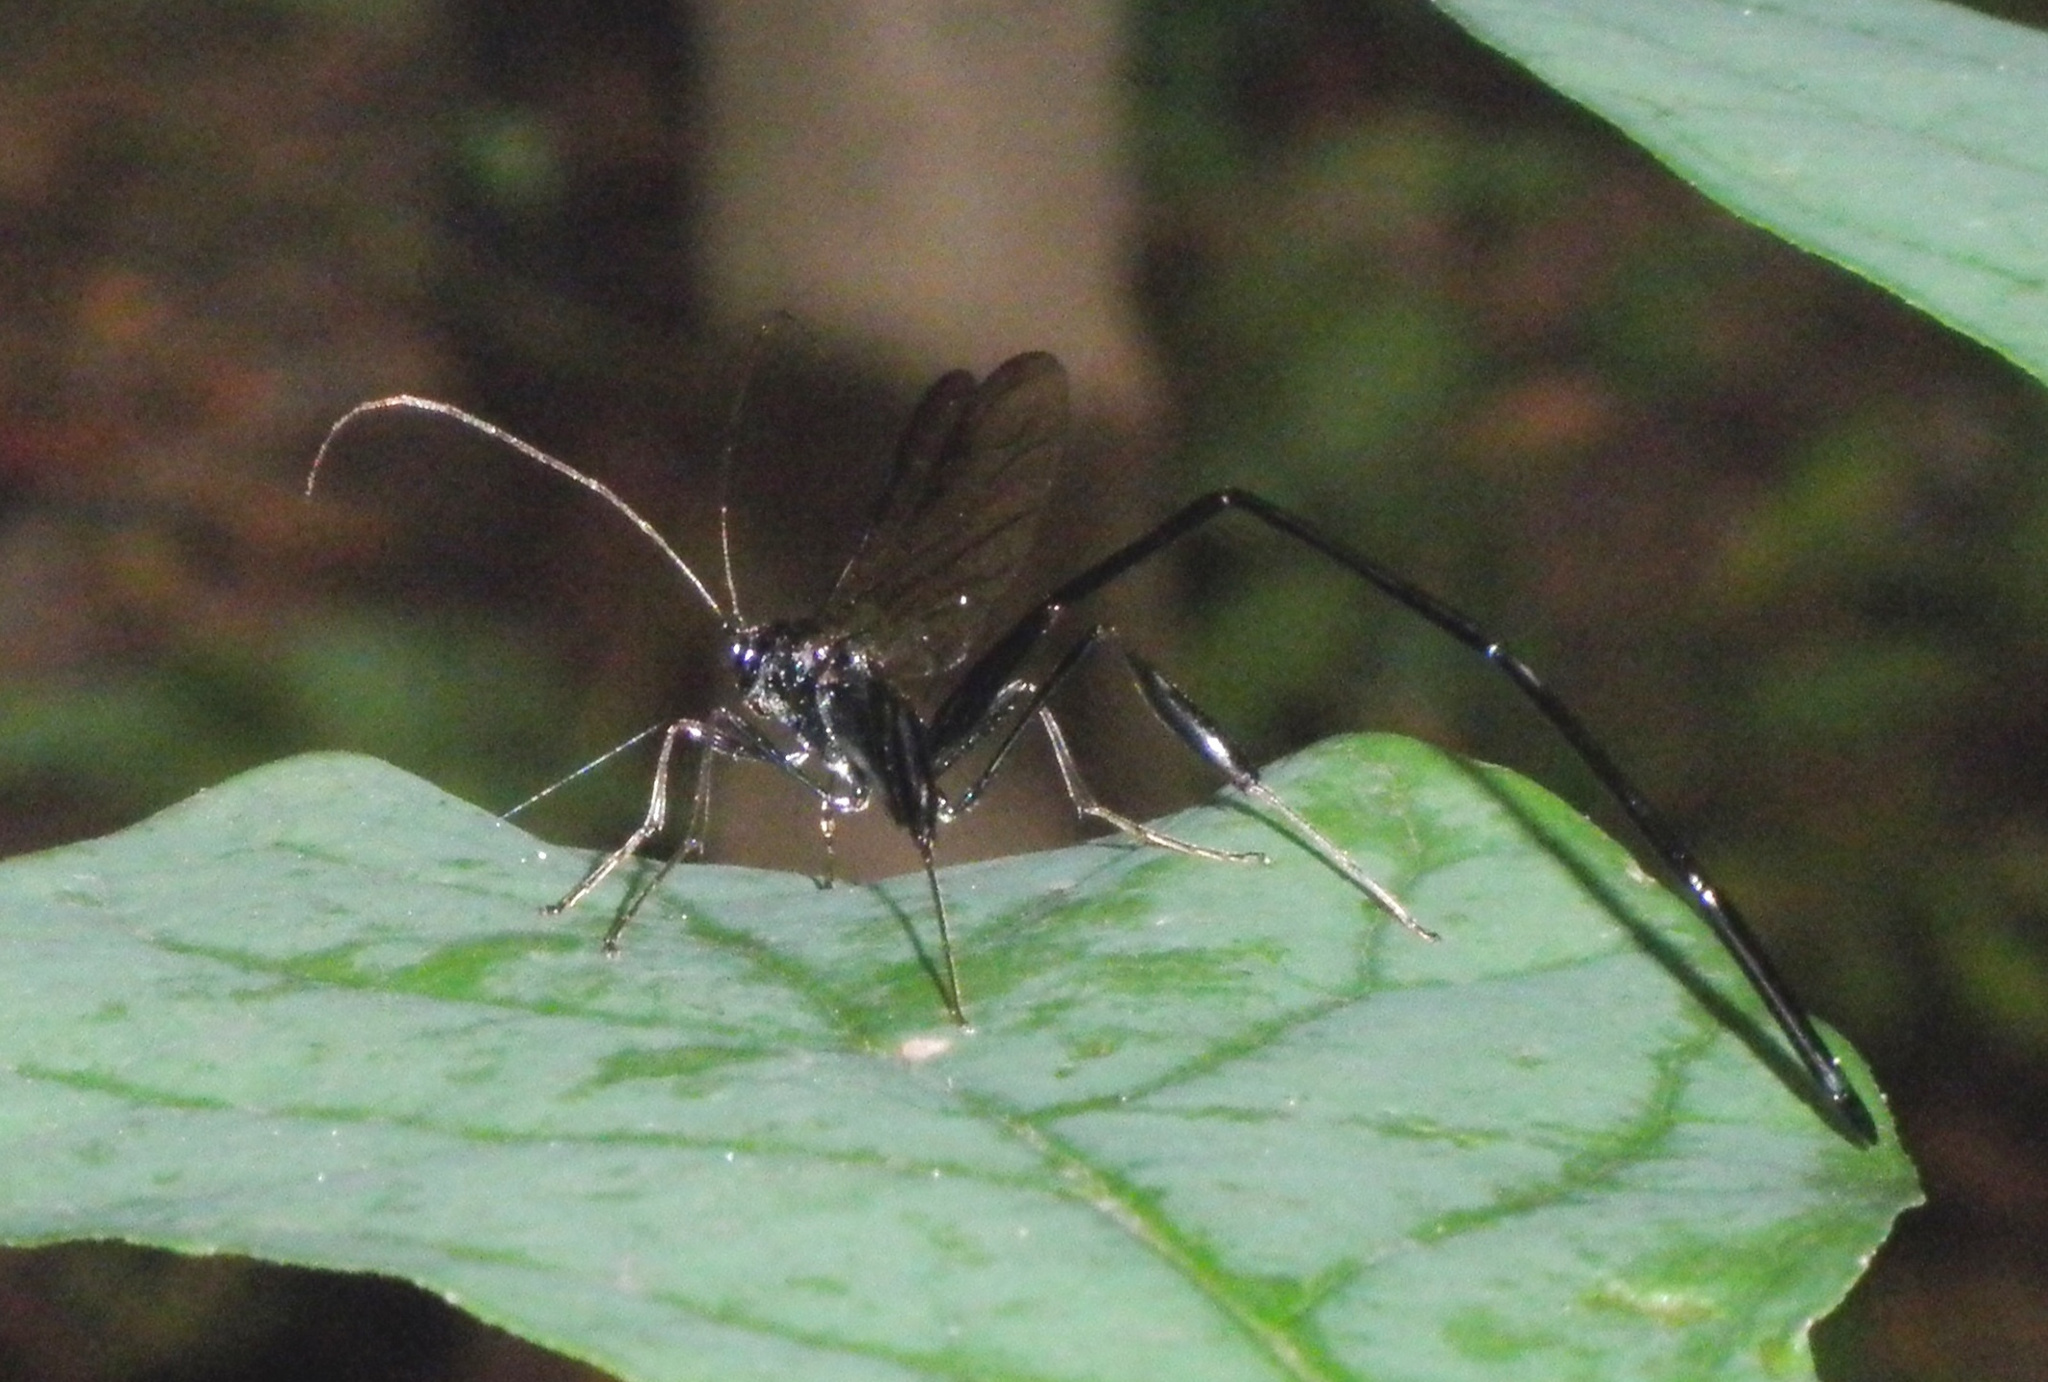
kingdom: Animalia
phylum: Arthropoda
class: Insecta
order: Hymenoptera
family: Pelecinidae
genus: Pelecinus
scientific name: Pelecinus polyturator
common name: American pelecinid wasp
